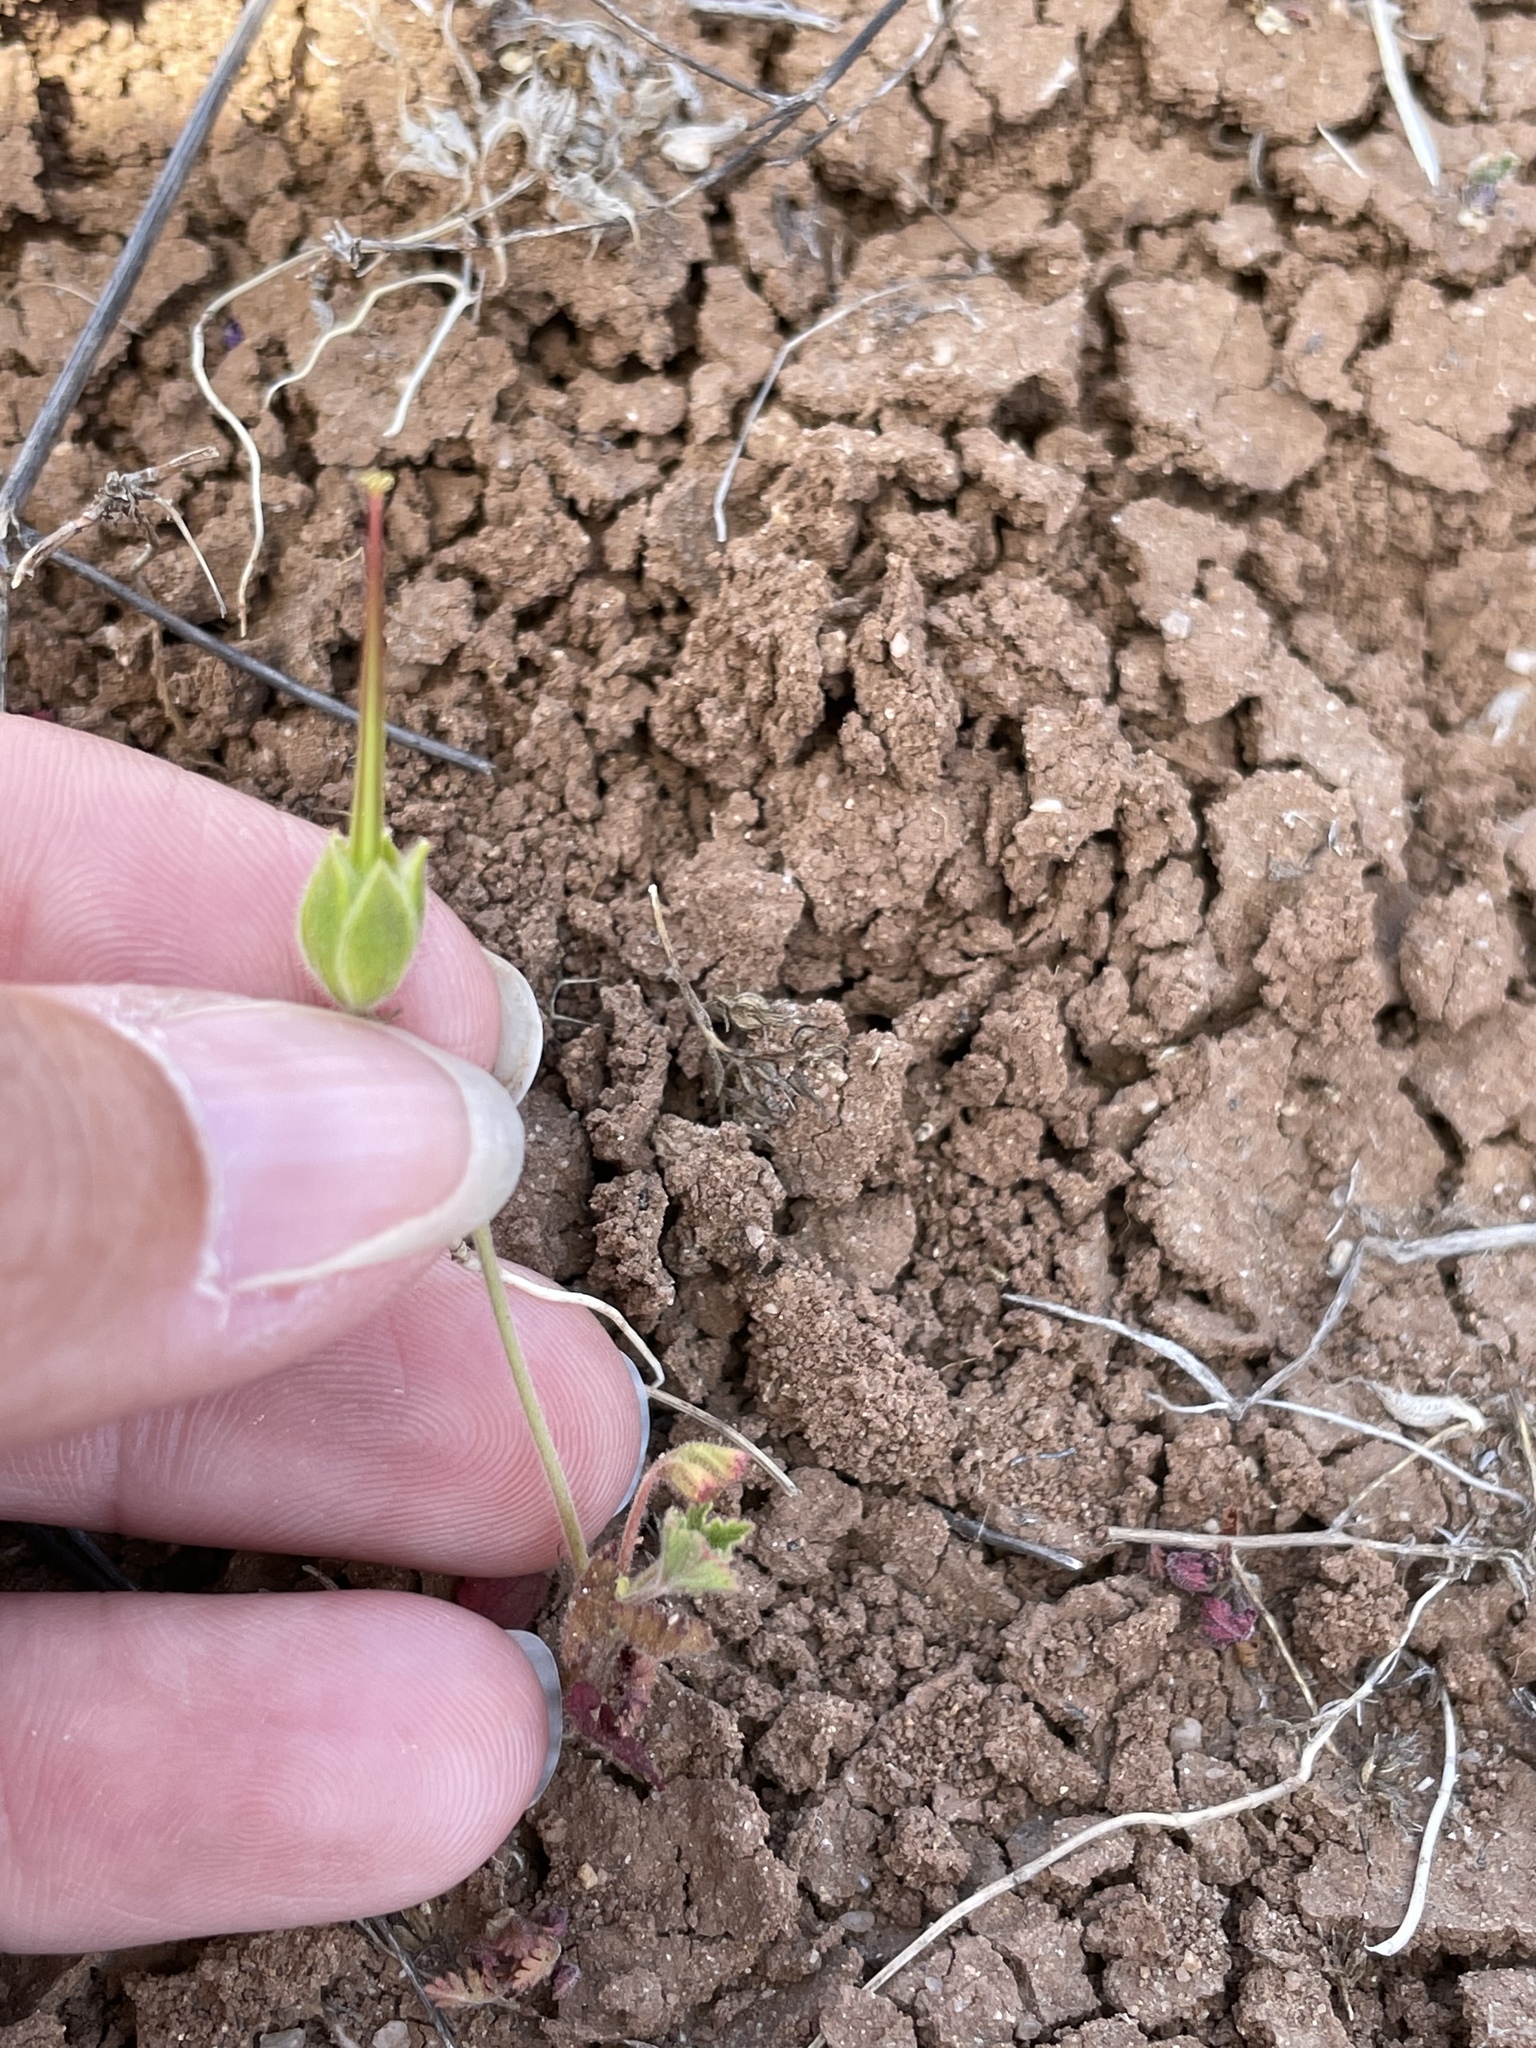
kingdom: Plantae
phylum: Tracheophyta
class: Magnoliopsida
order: Geraniales
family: Geraniaceae
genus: California
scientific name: California macrophylla
